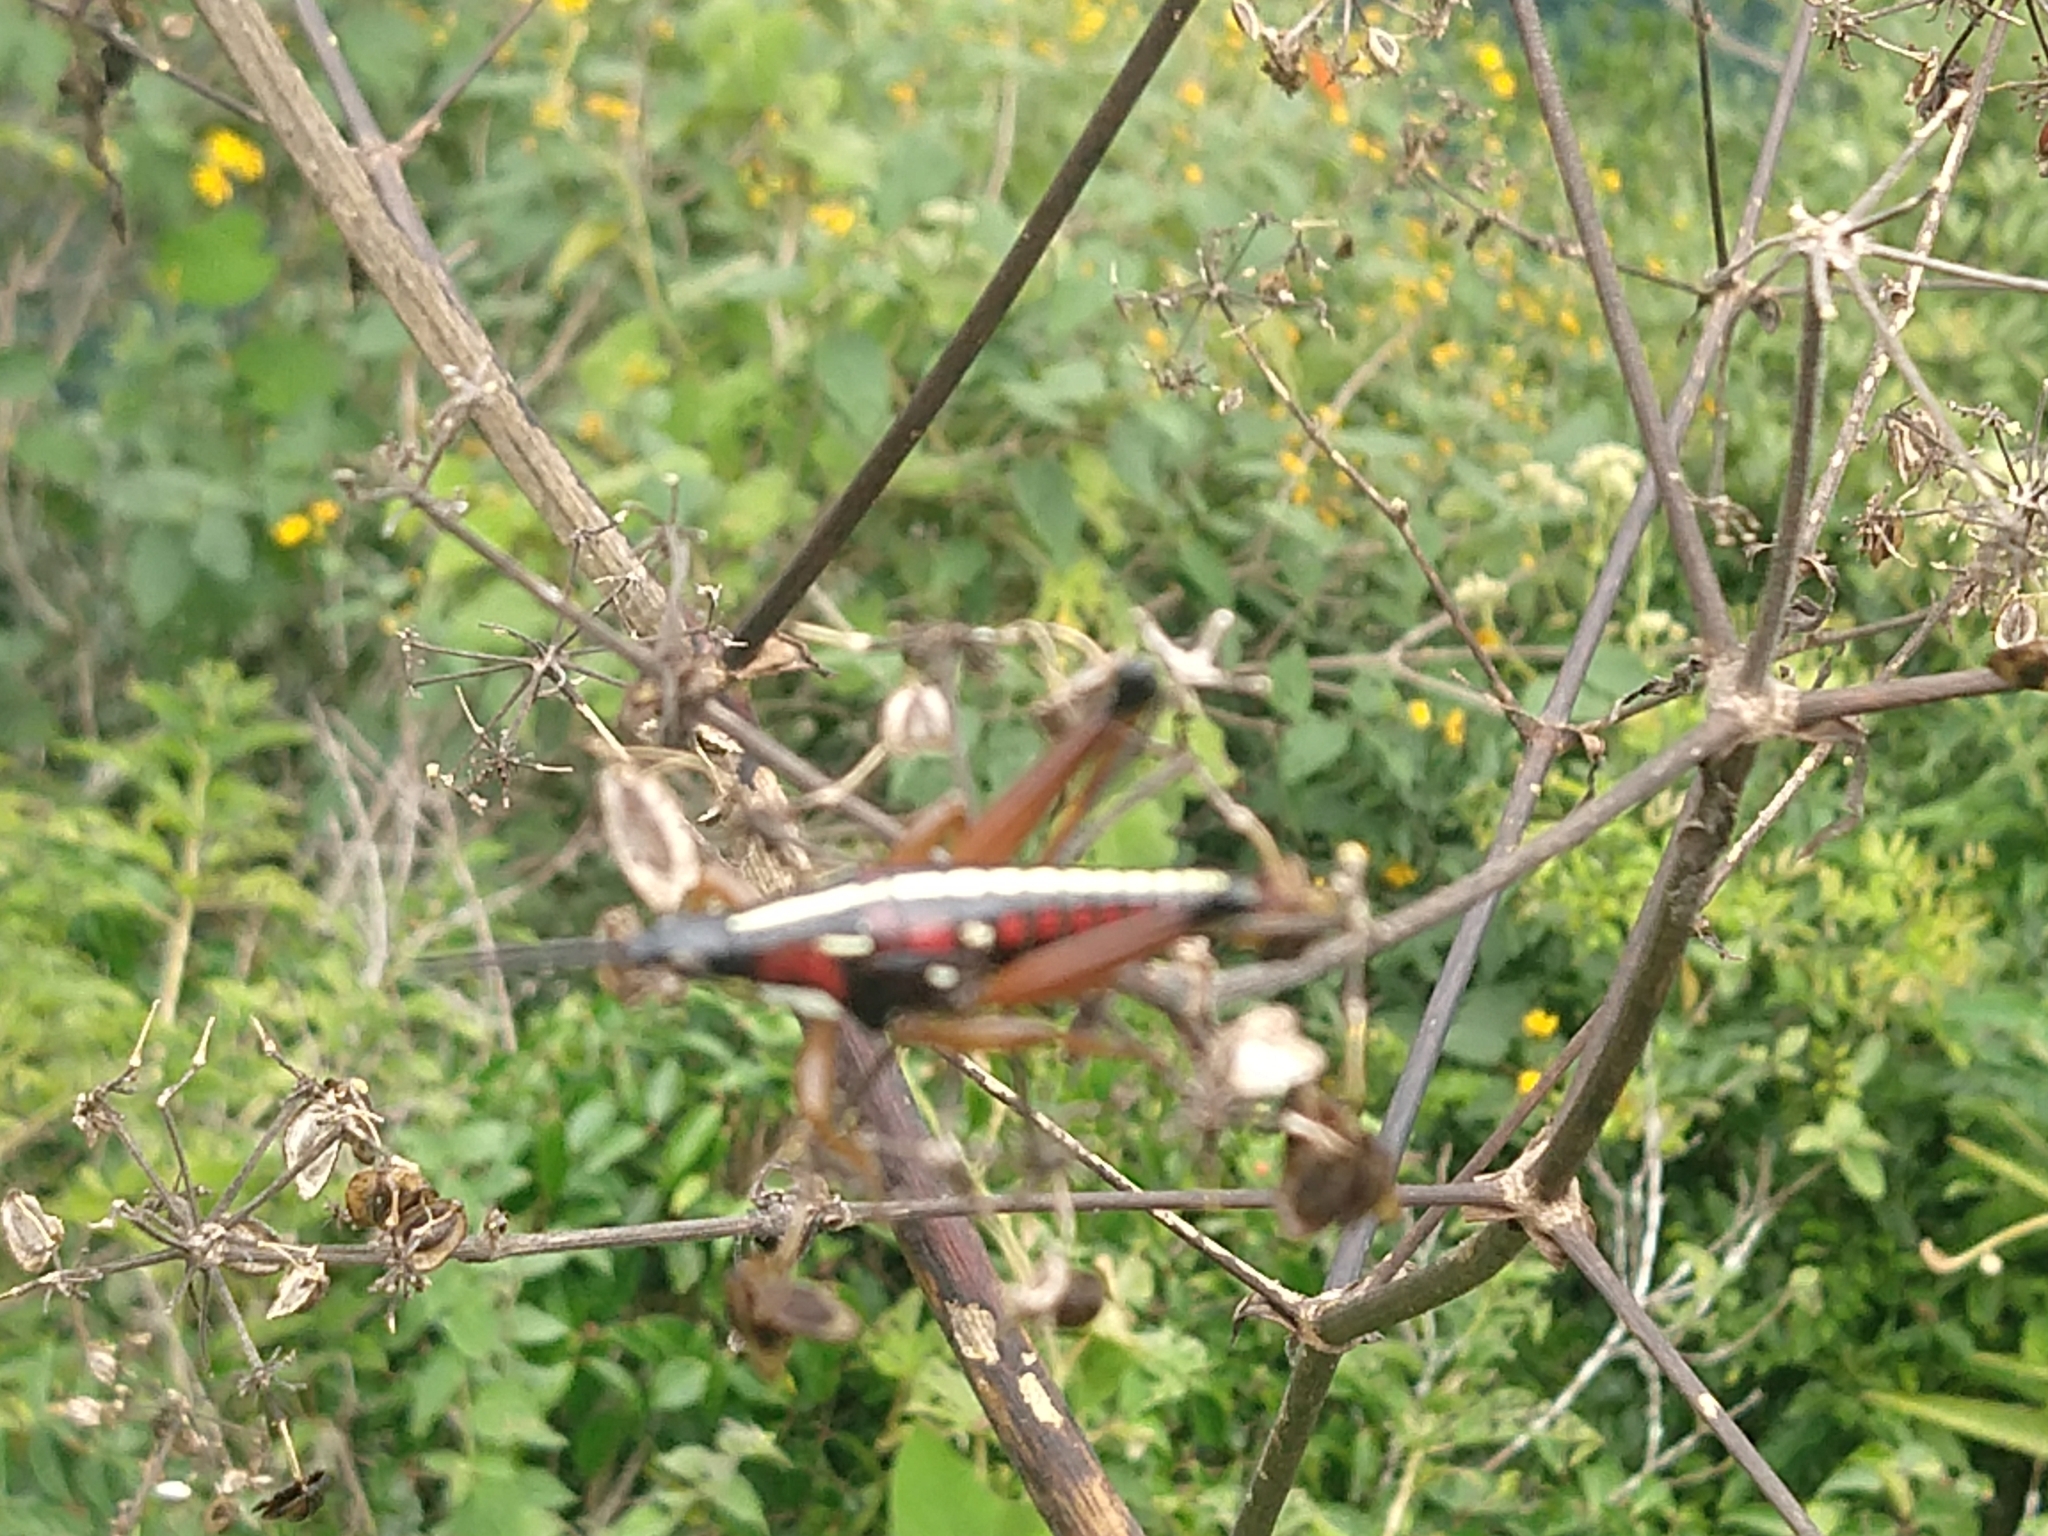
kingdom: Animalia
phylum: Arthropoda
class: Insecta
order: Orthoptera
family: Pyrgomorphidae
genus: Sphenarium
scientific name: Sphenarium histrio
